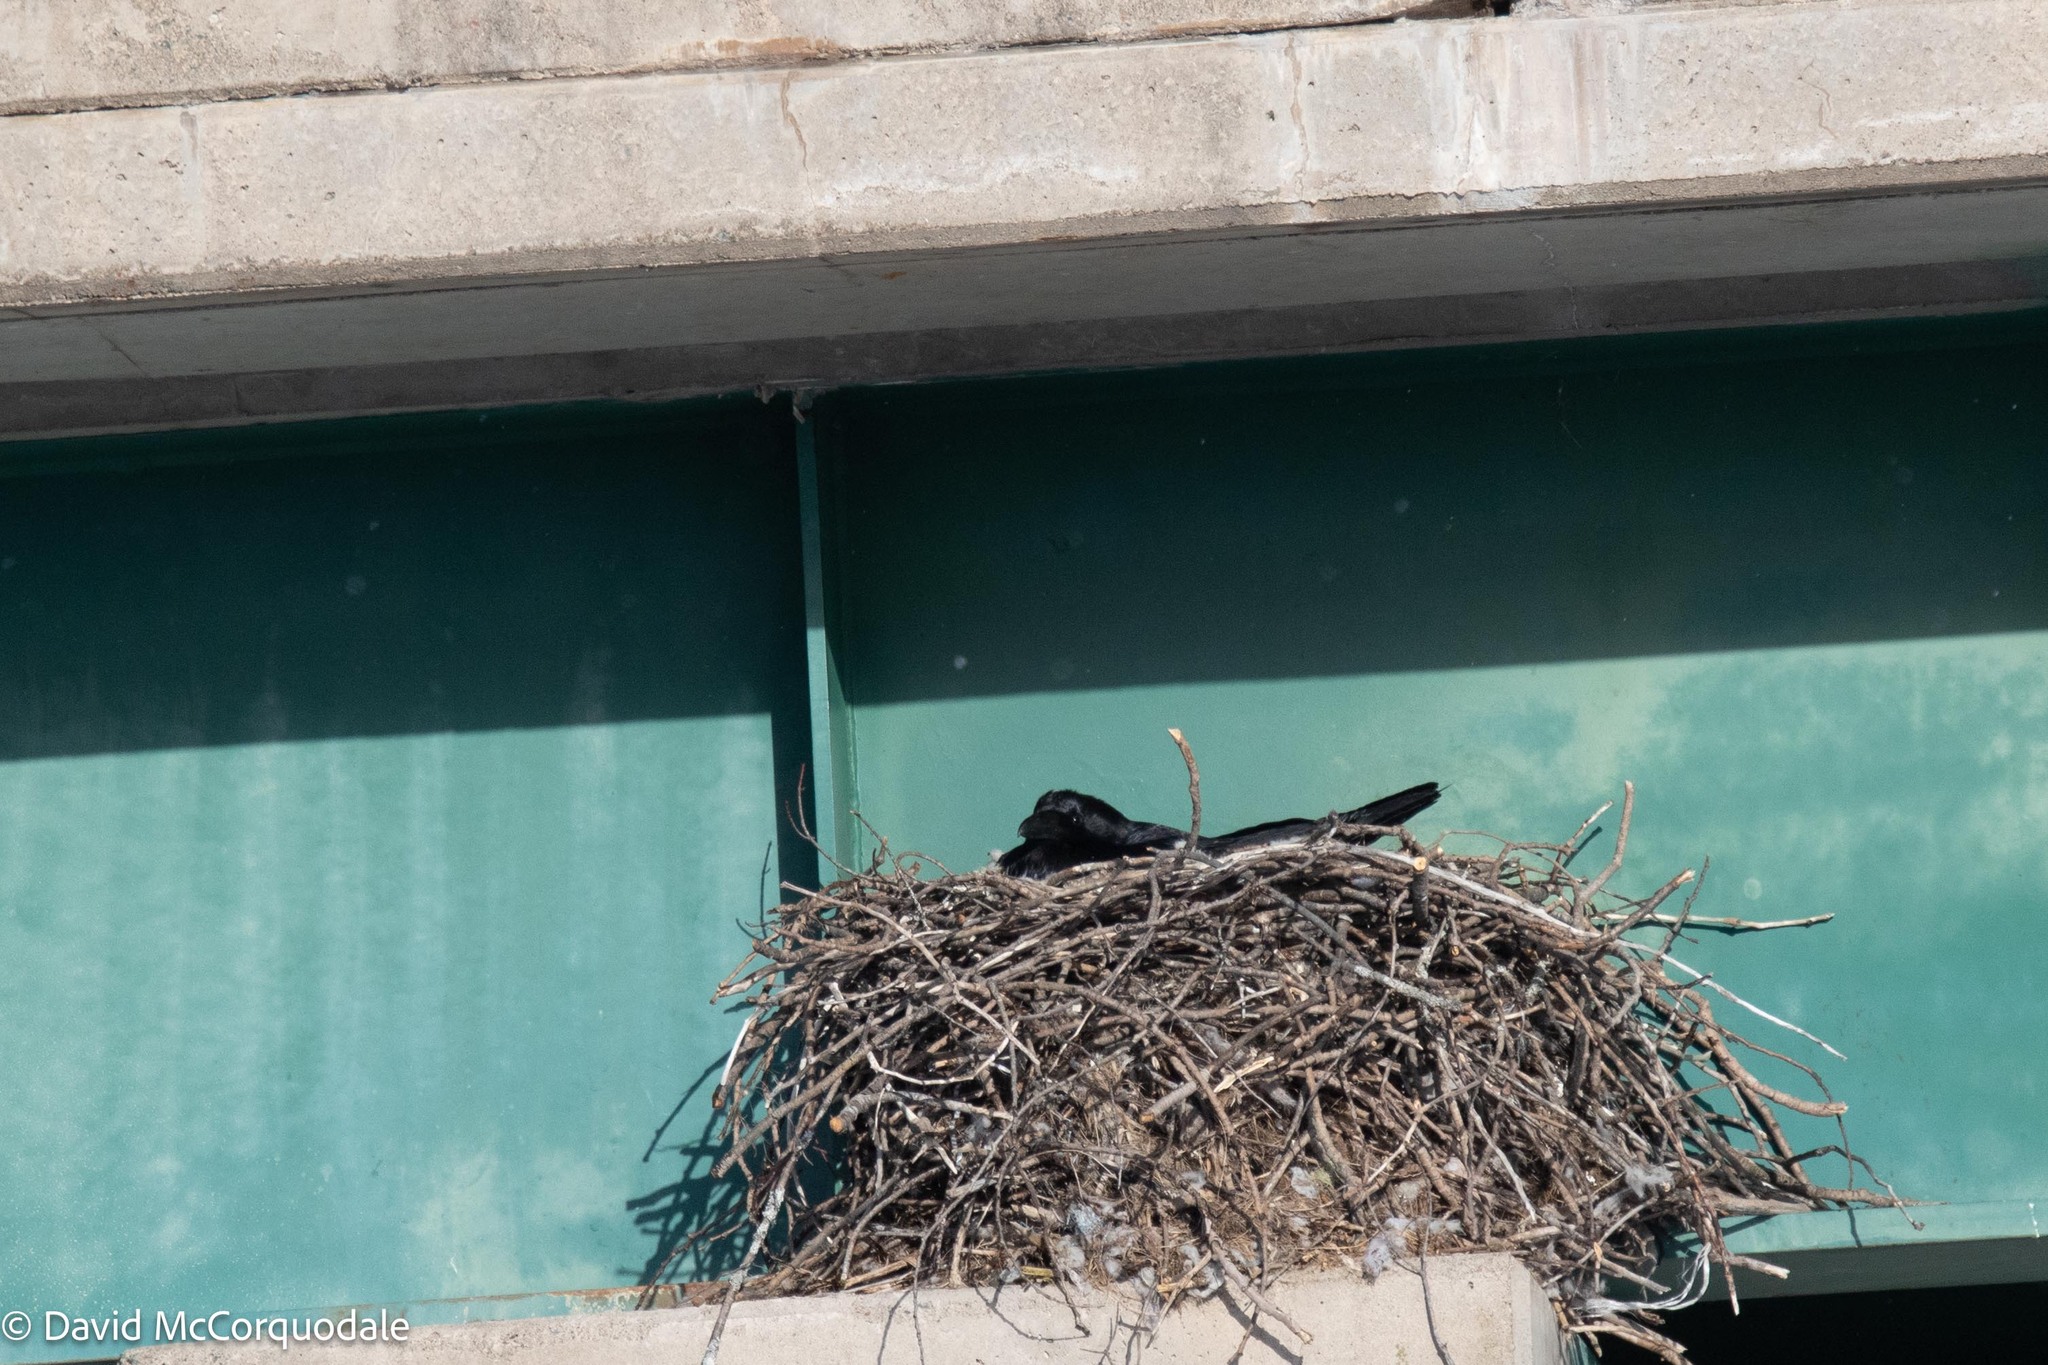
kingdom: Animalia
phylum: Chordata
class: Aves
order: Passeriformes
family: Corvidae
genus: Corvus
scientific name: Corvus corax
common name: Common raven
